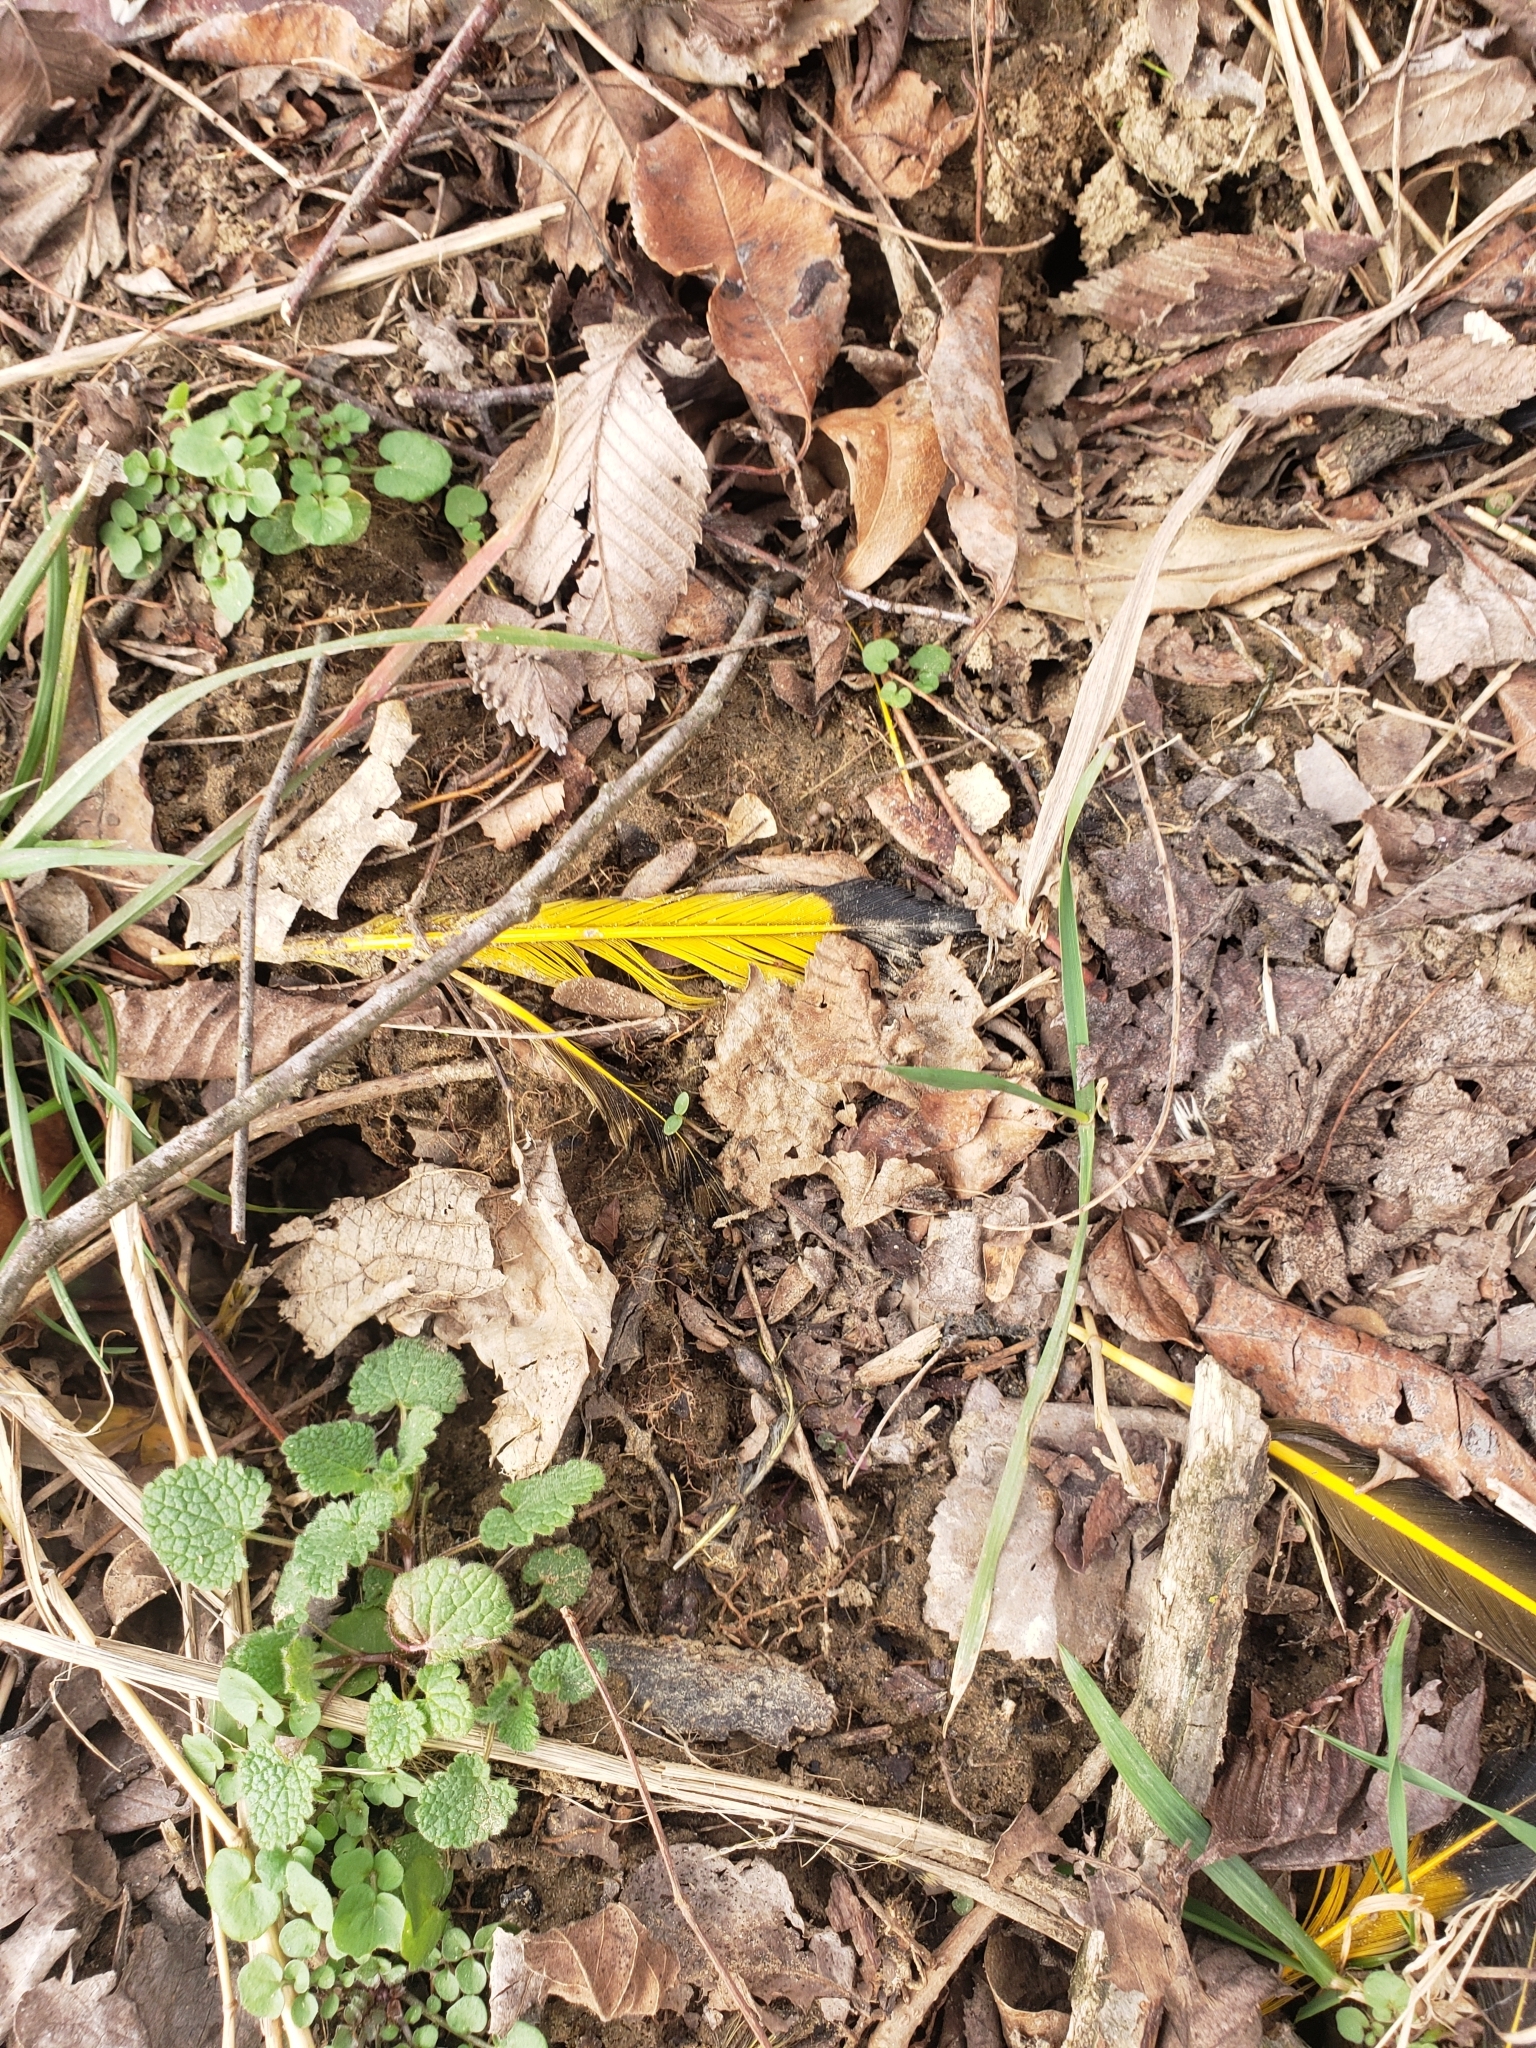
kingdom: Animalia
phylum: Chordata
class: Aves
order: Piciformes
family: Picidae
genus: Colaptes
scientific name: Colaptes auratus
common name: Northern flicker
